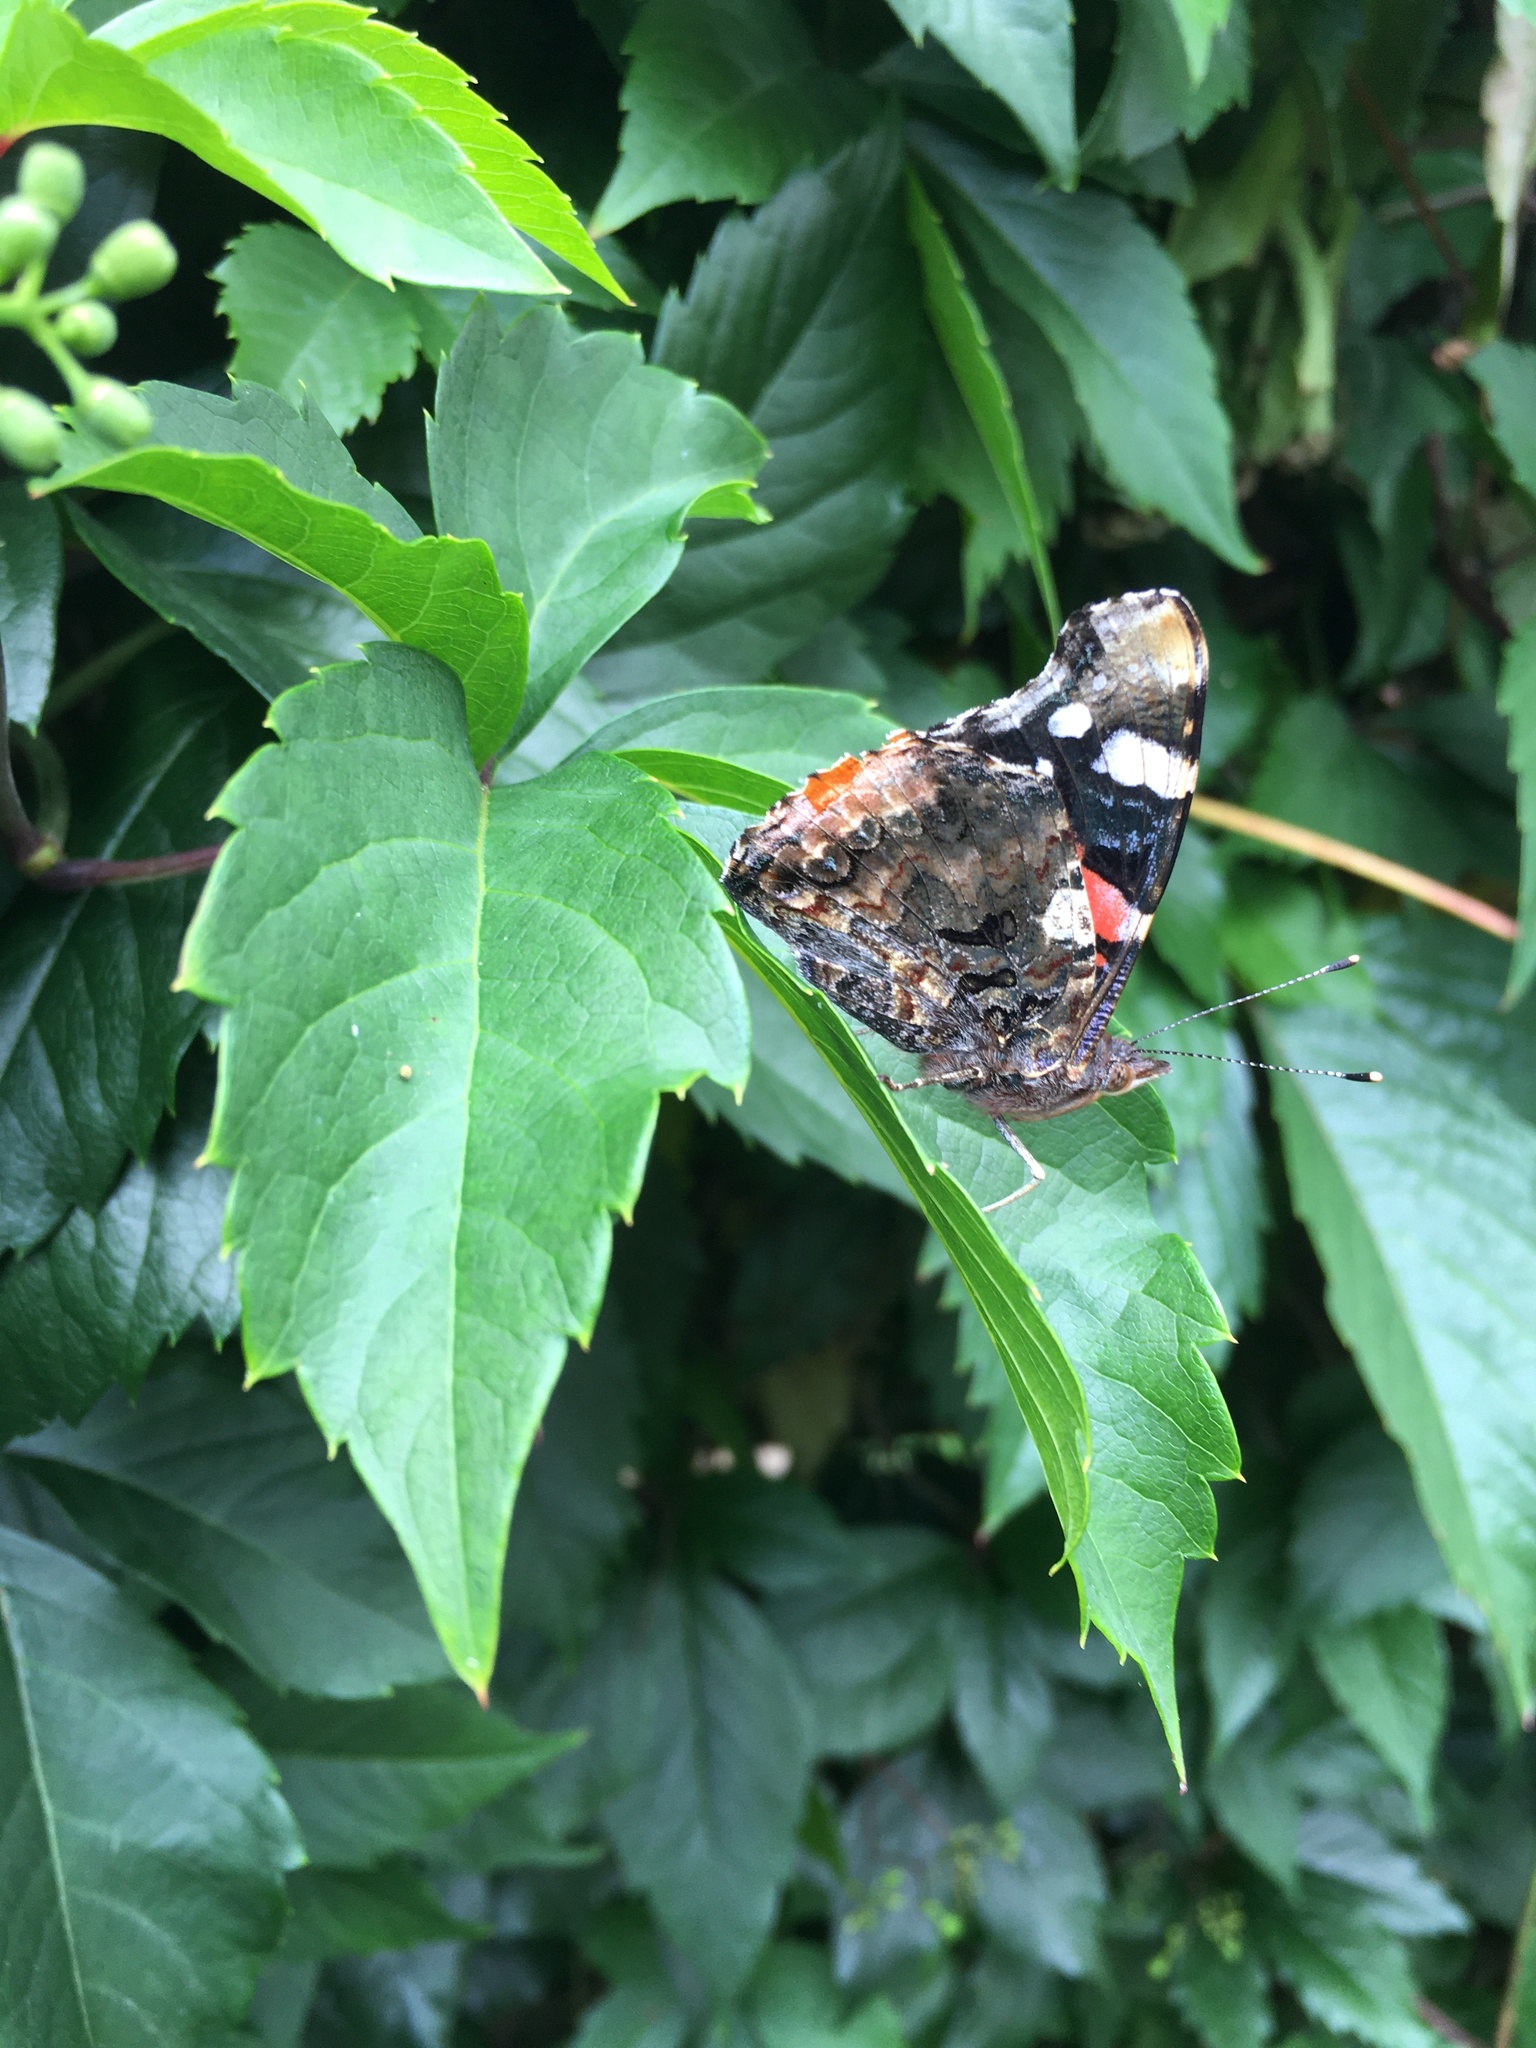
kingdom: Animalia
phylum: Arthropoda
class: Insecta
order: Lepidoptera
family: Nymphalidae
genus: Vanessa
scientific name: Vanessa atalanta
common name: Red admiral
